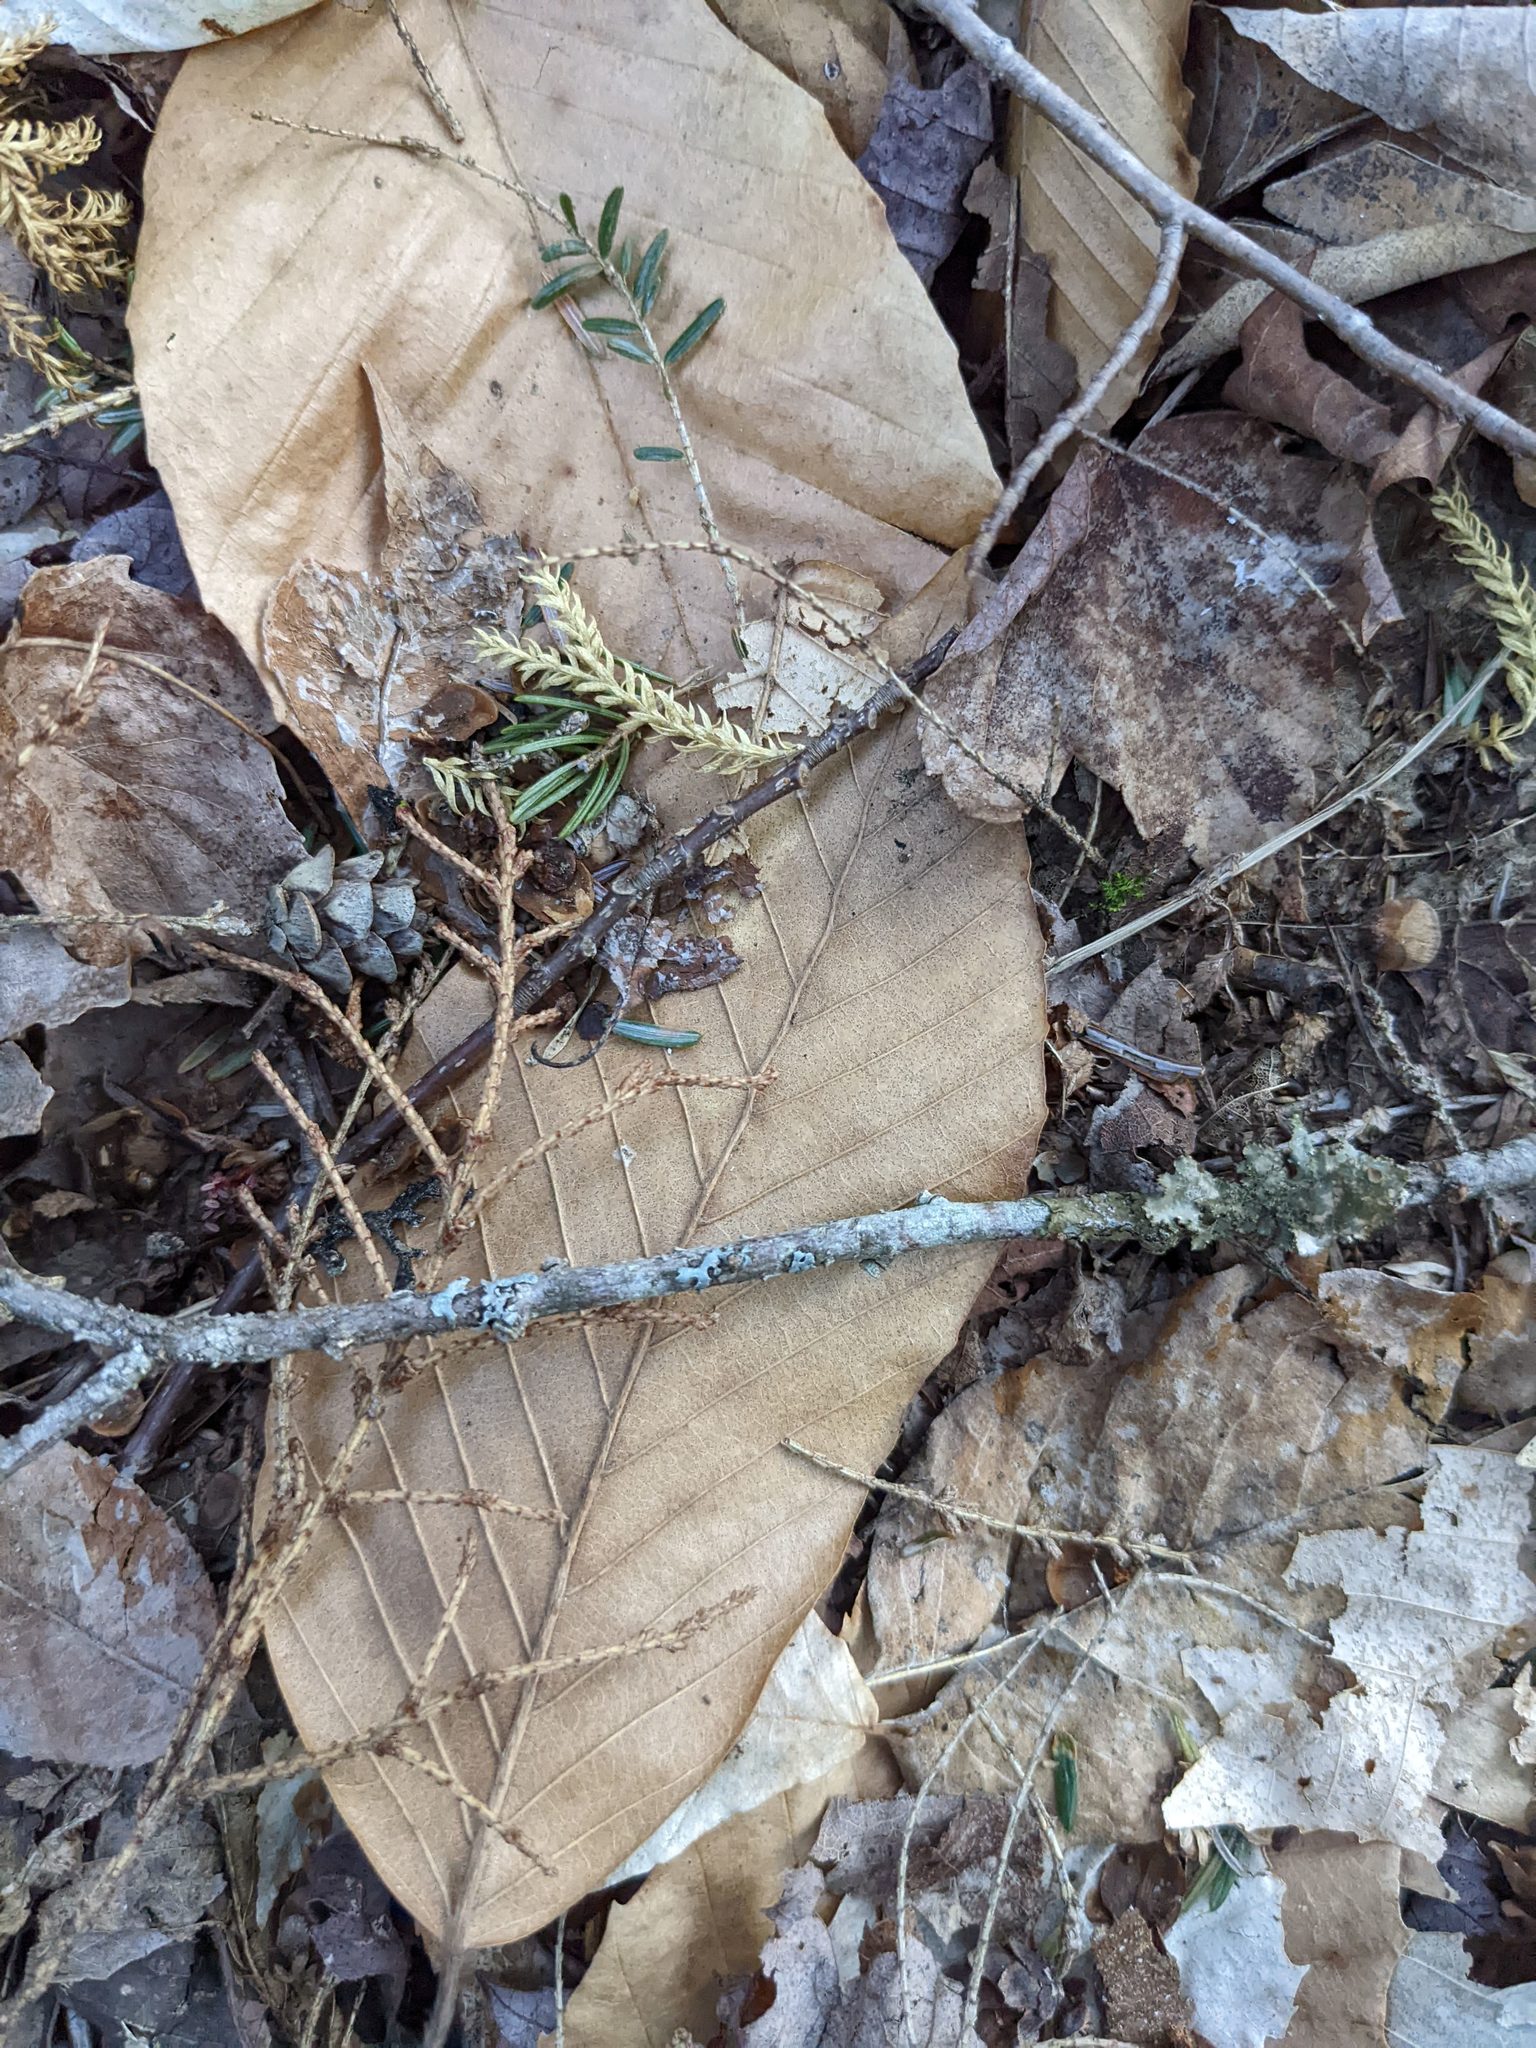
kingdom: Plantae
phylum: Tracheophyta
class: Magnoliopsida
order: Fagales
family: Fagaceae
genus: Fagus
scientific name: Fagus grandifolia
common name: American beech
